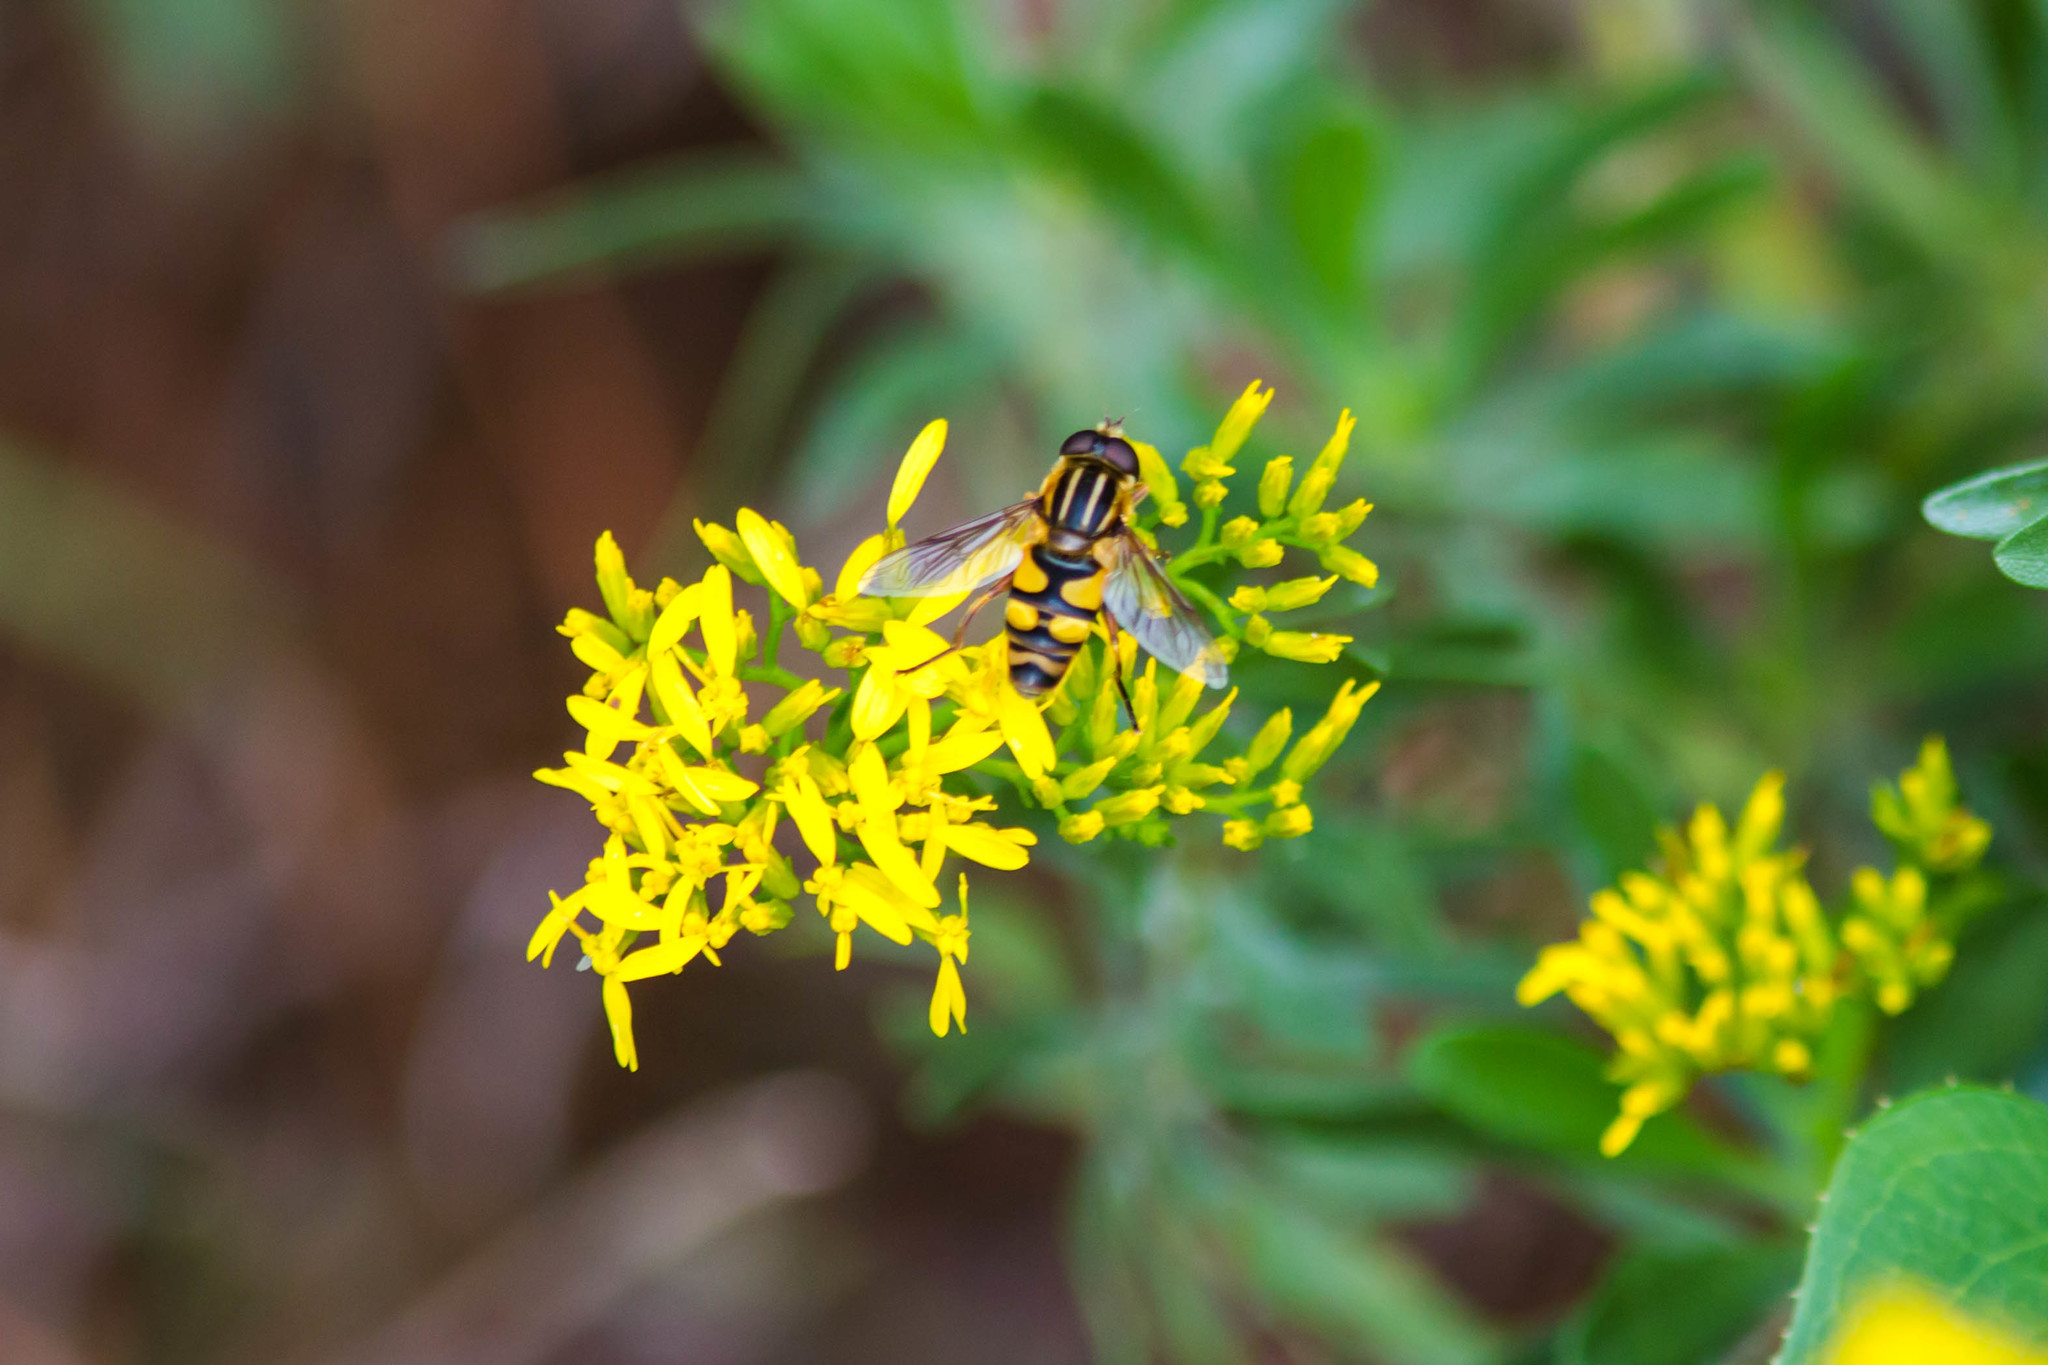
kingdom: Animalia
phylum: Arthropoda
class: Insecta
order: Diptera
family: Syrphidae
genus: Helophilus
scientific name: Helophilus fasciatus
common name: Narrow-headed marsh fly
